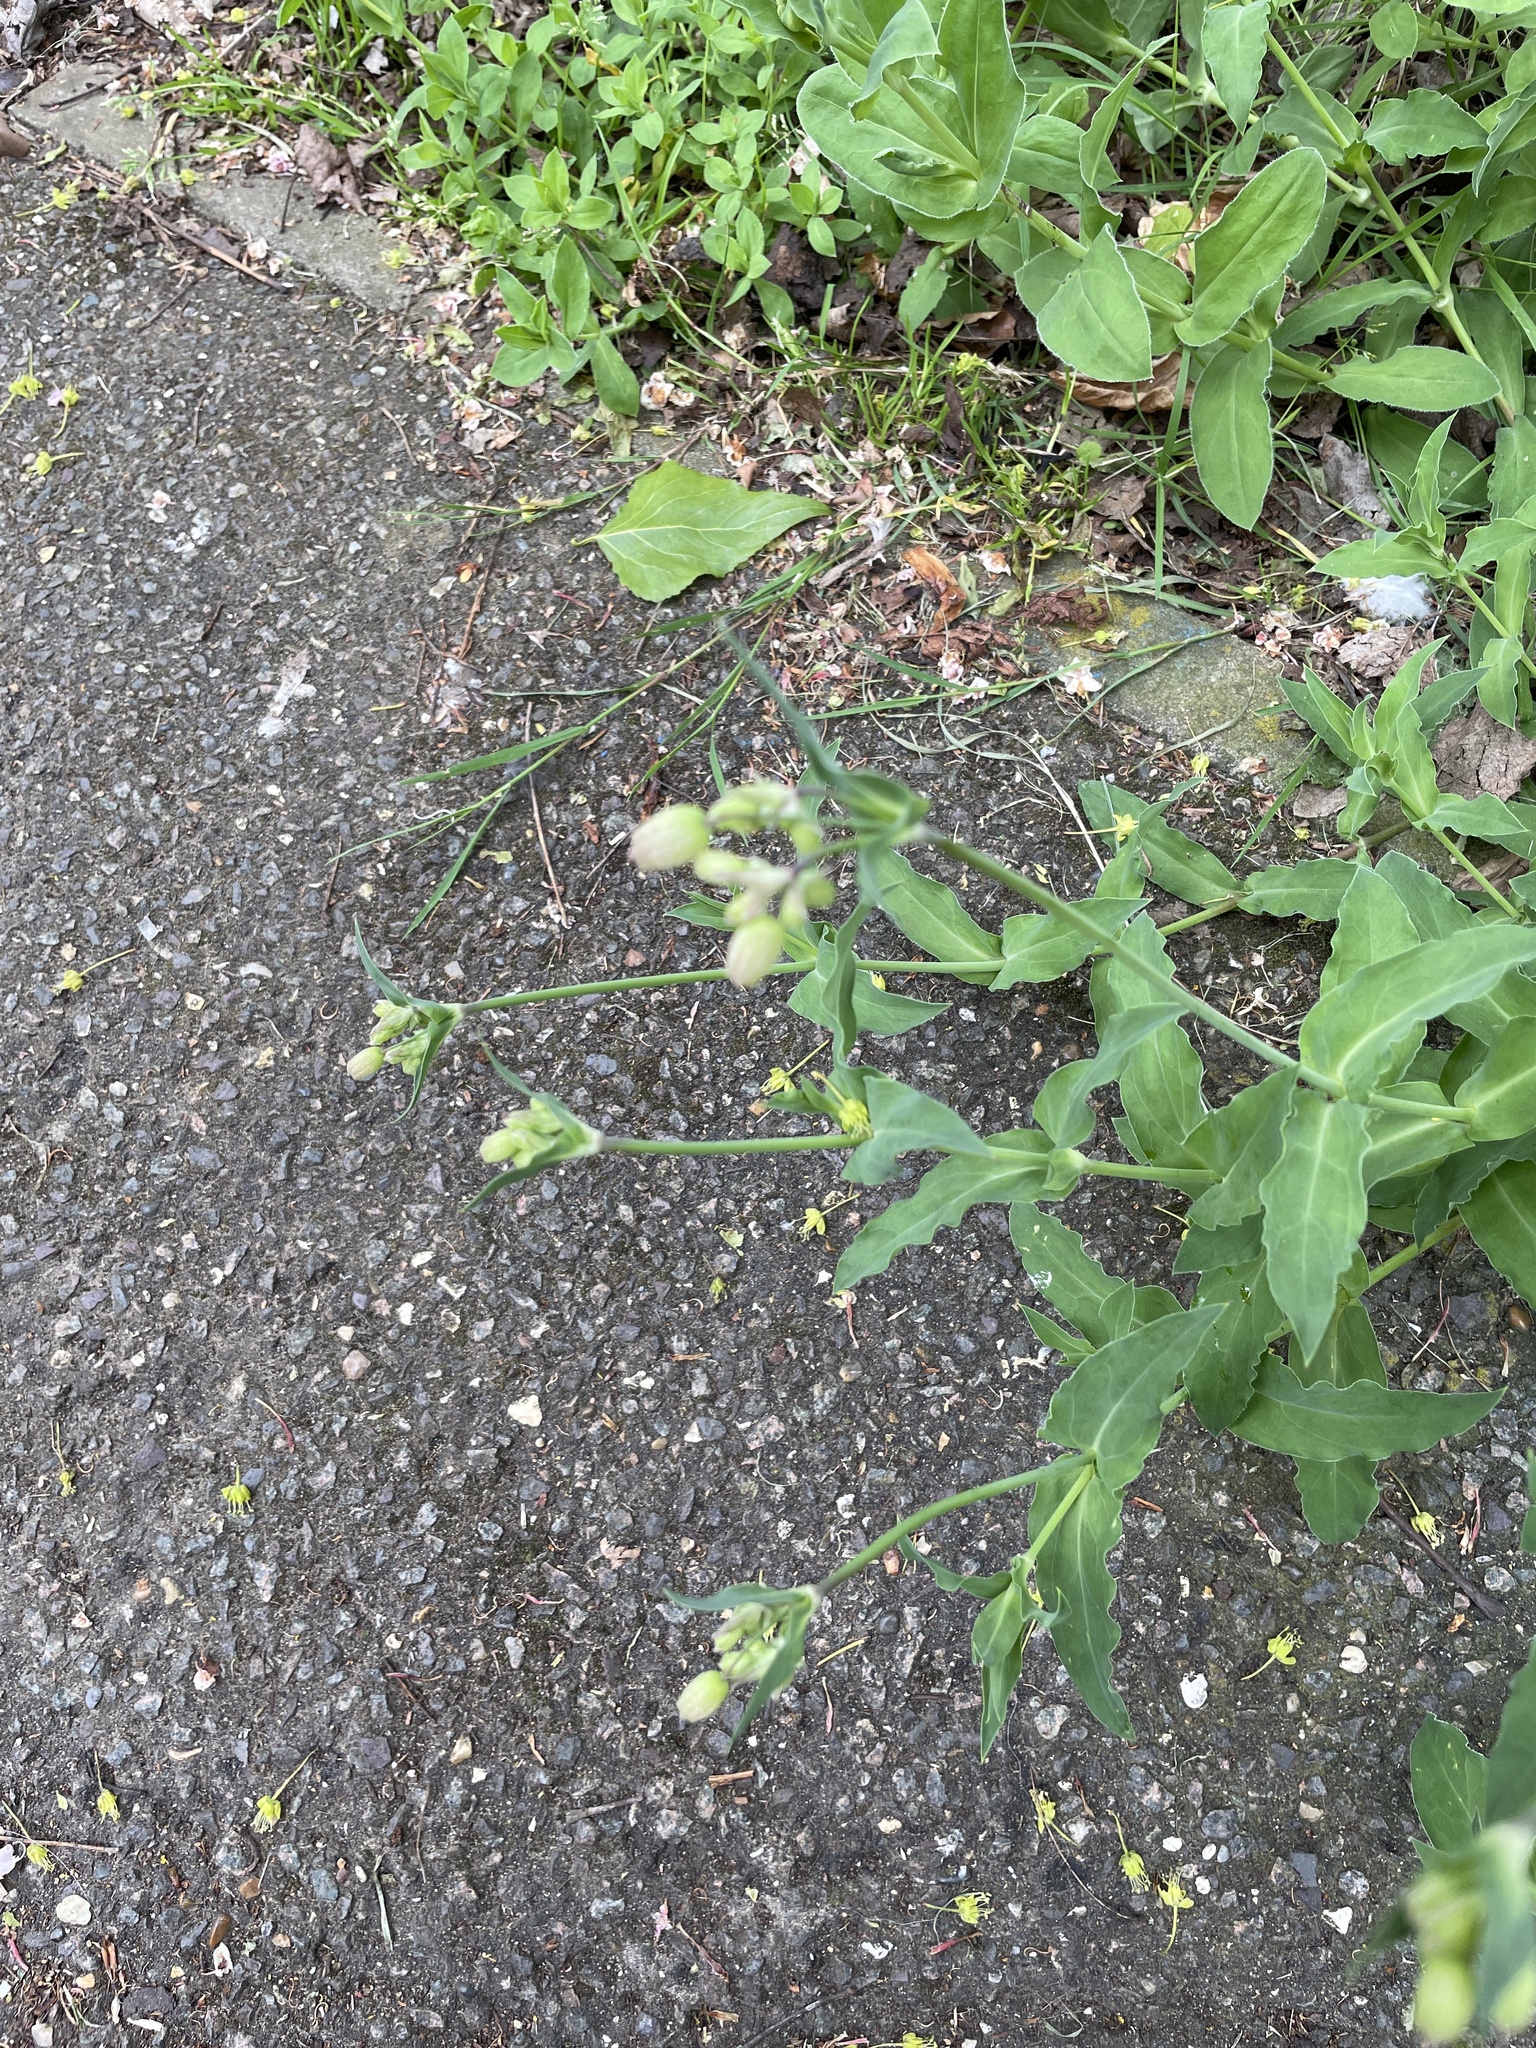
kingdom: Plantae
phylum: Tracheophyta
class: Magnoliopsida
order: Caryophyllales
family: Caryophyllaceae
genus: Silene
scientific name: Silene vulgaris
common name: Bladder campion
